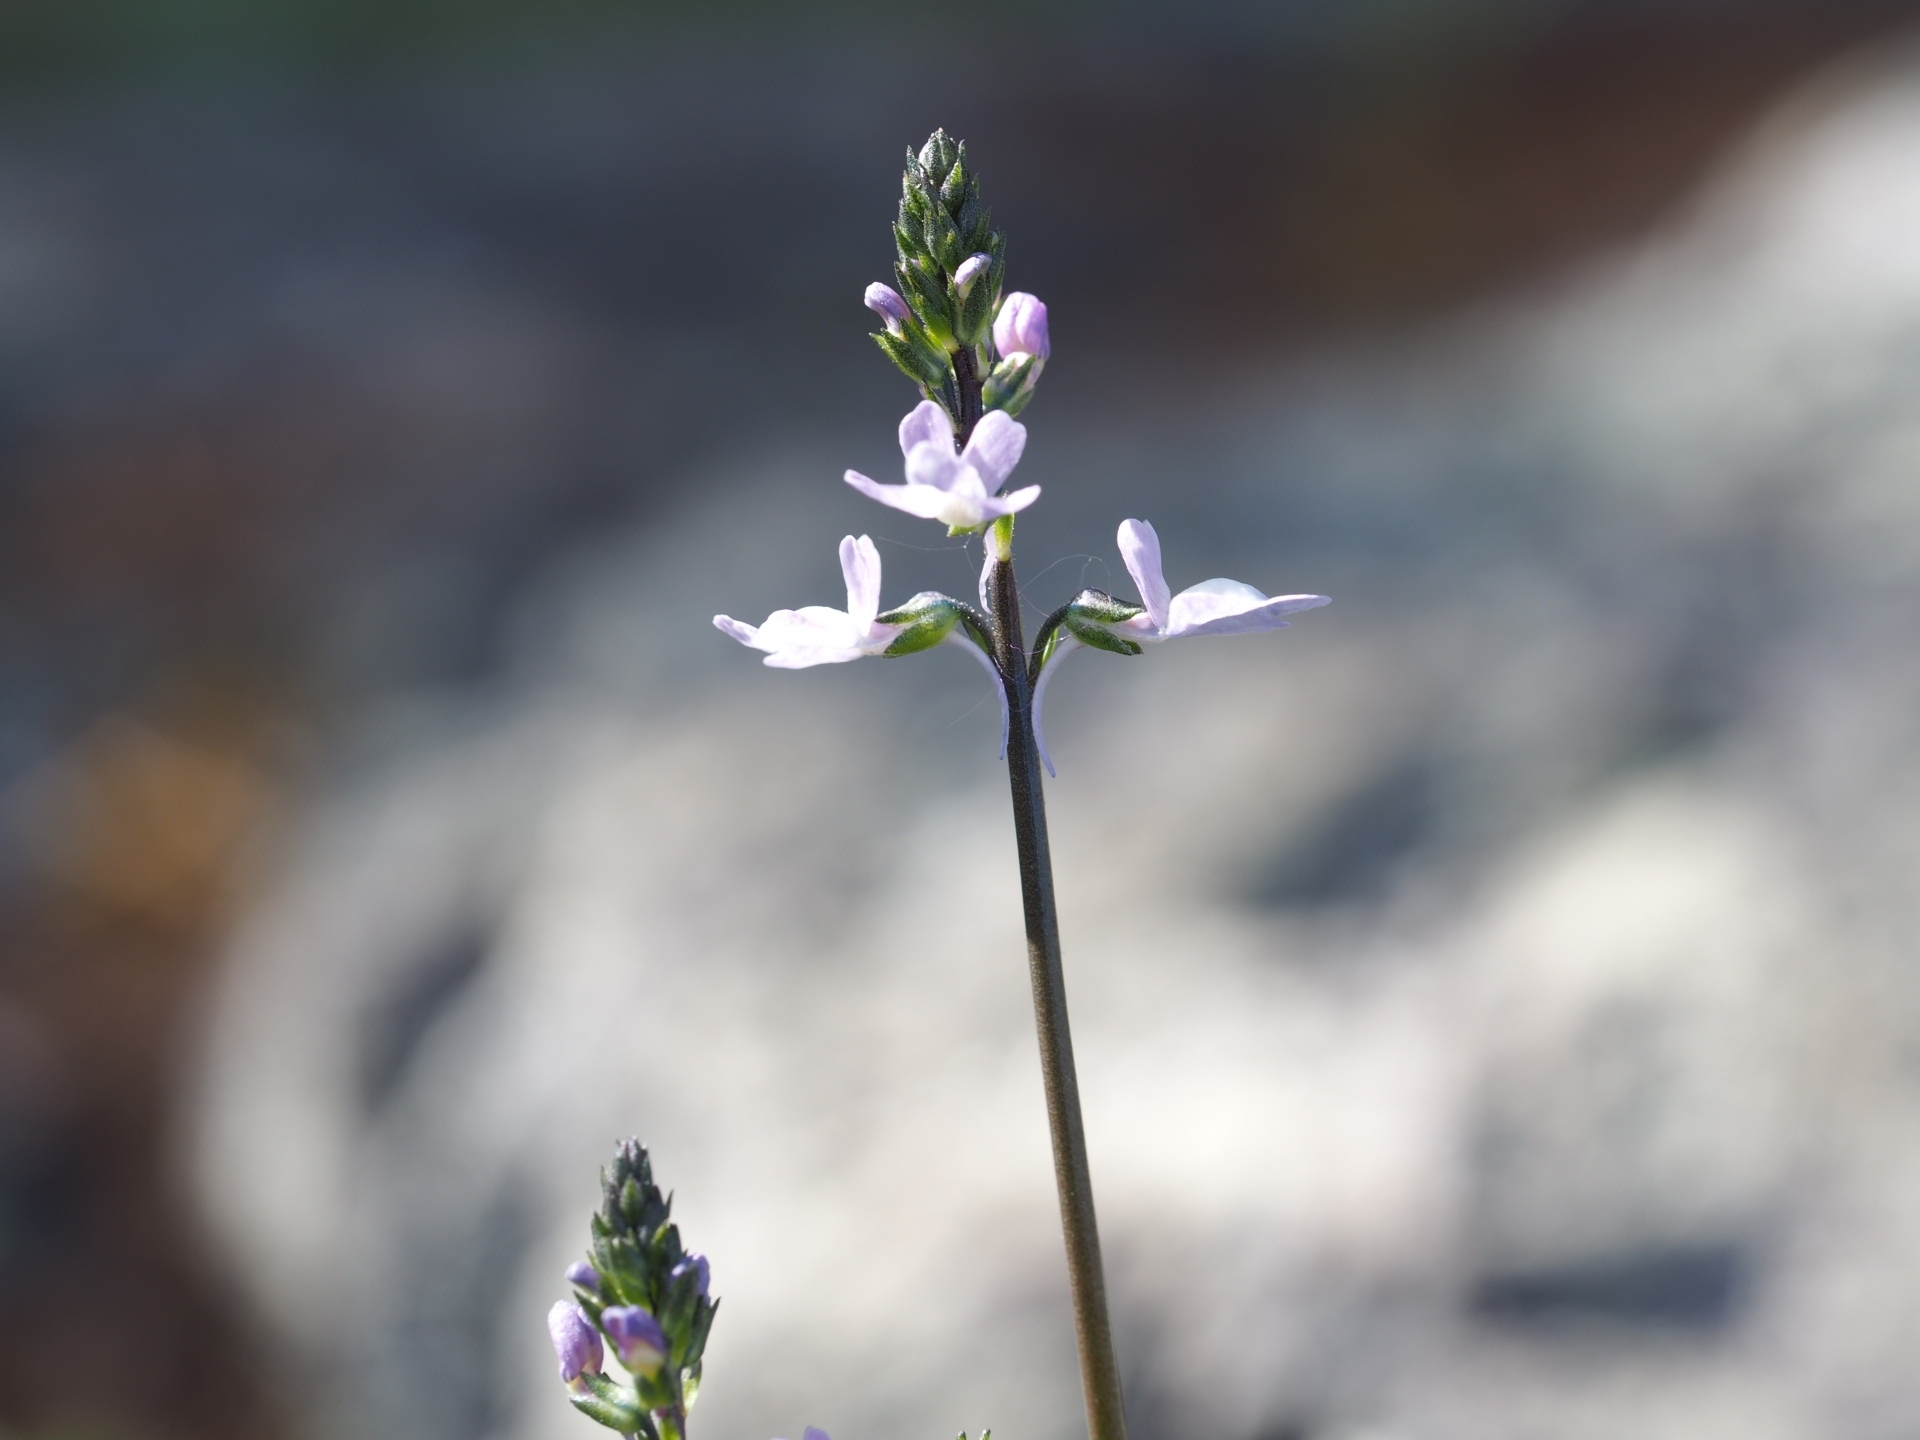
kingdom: Plantae
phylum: Tracheophyta
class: Magnoliopsida
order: Lamiales
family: Plantaginaceae
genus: Nuttallanthus
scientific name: Nuttallanthus canadensis
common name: Blue toadflax
